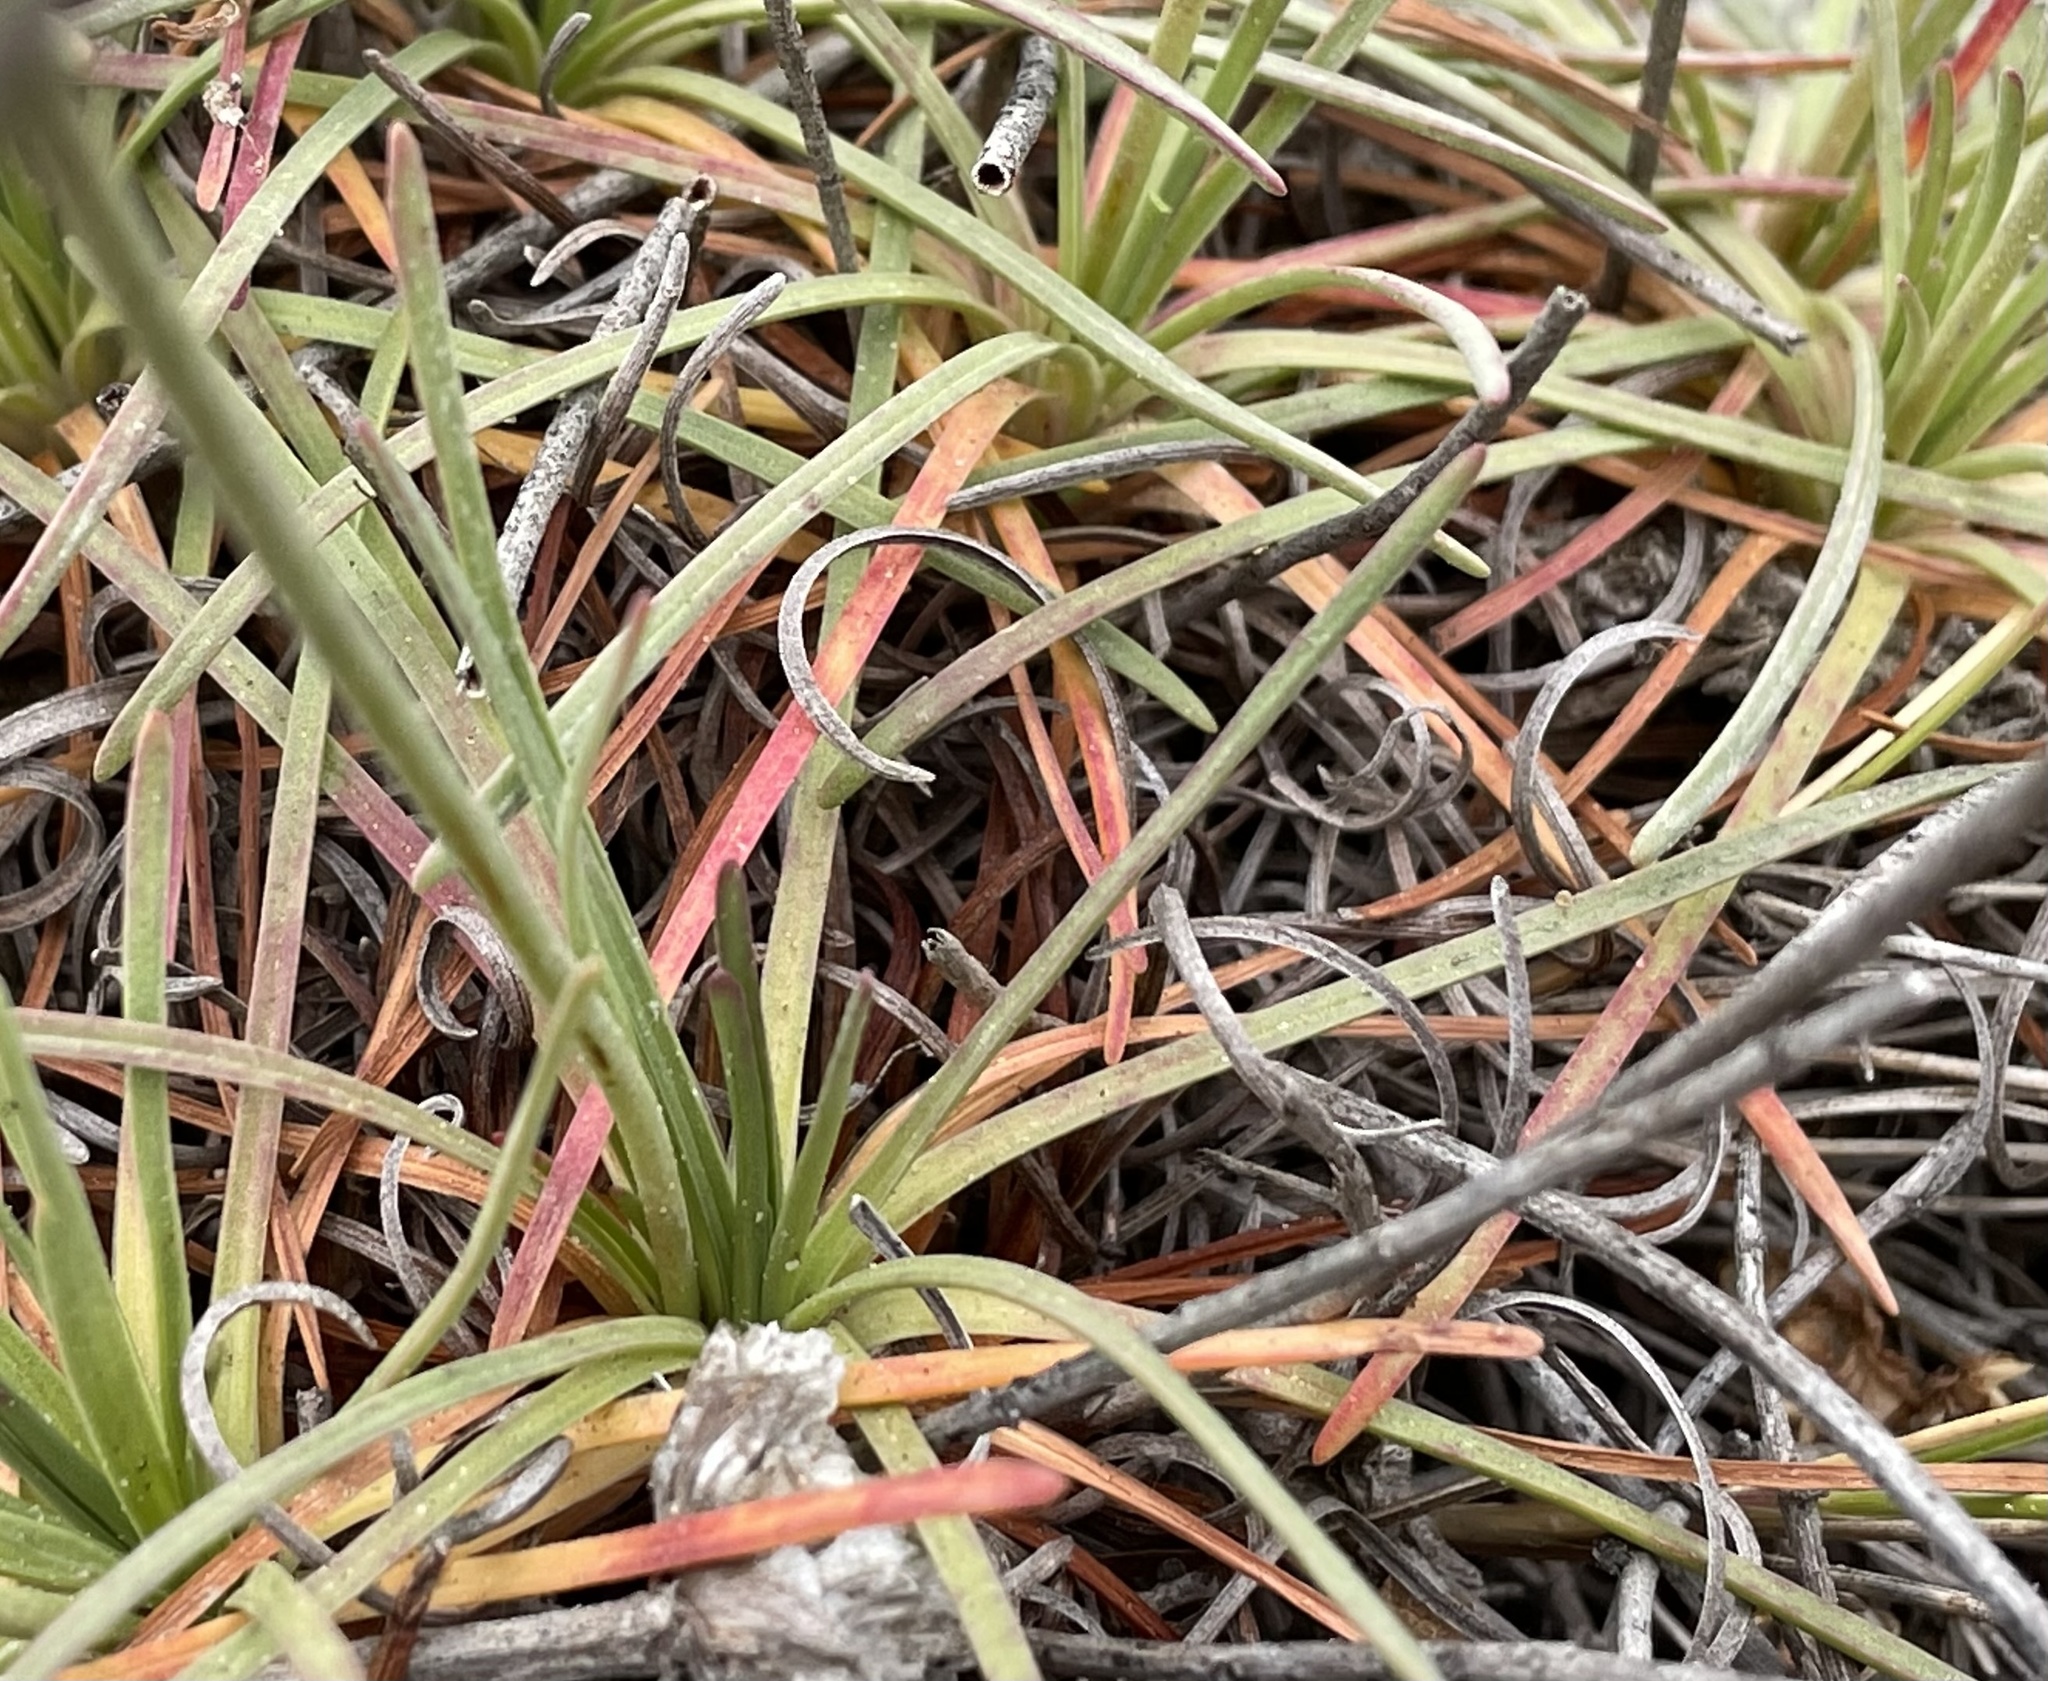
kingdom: Plantae
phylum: Tracheophyta
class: Magnoliopsida
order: Caryophyllales
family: Plumbaginaceae
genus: Armeria
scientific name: Armeria maritima
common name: Thrift
